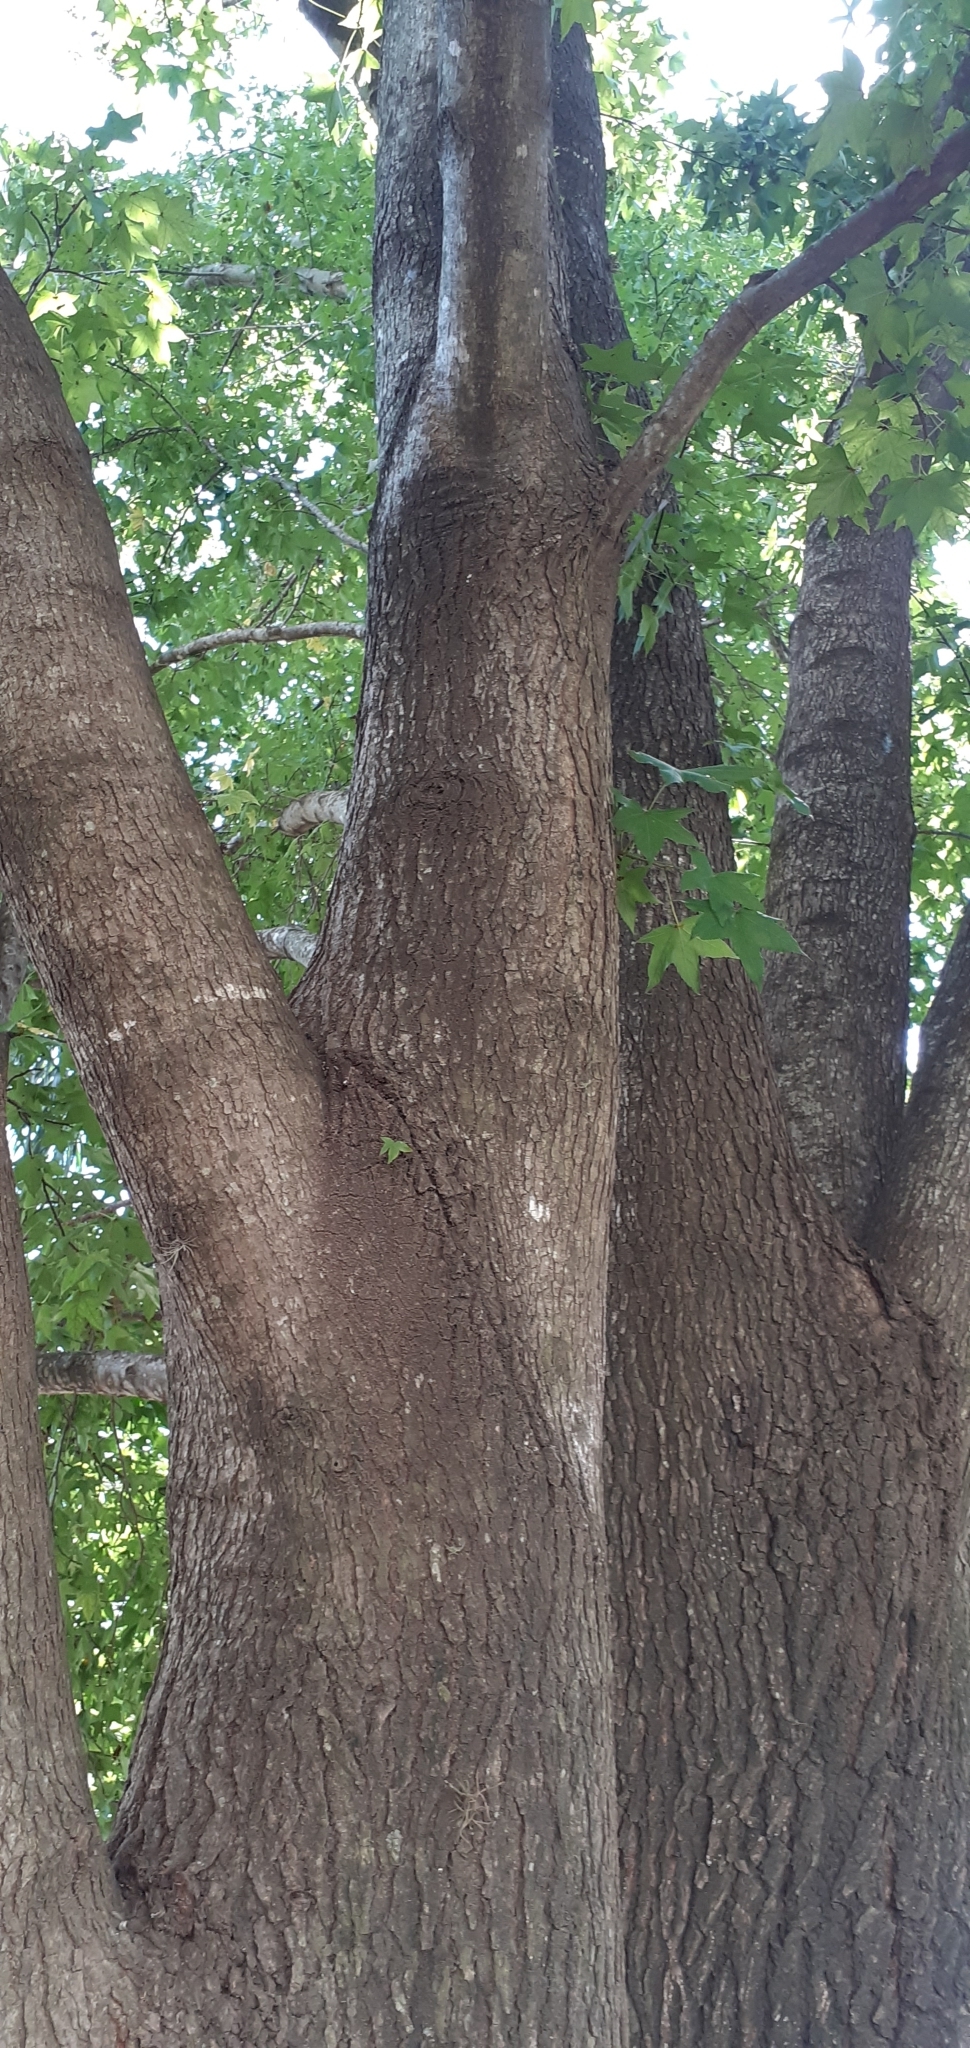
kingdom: Plantae
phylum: Tracheophyta
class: Magnoliopsida
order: Saxifragales
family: Altingiaceae
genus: Liquidambar
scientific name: Liquidambar styraciflua
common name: Sweet gum
